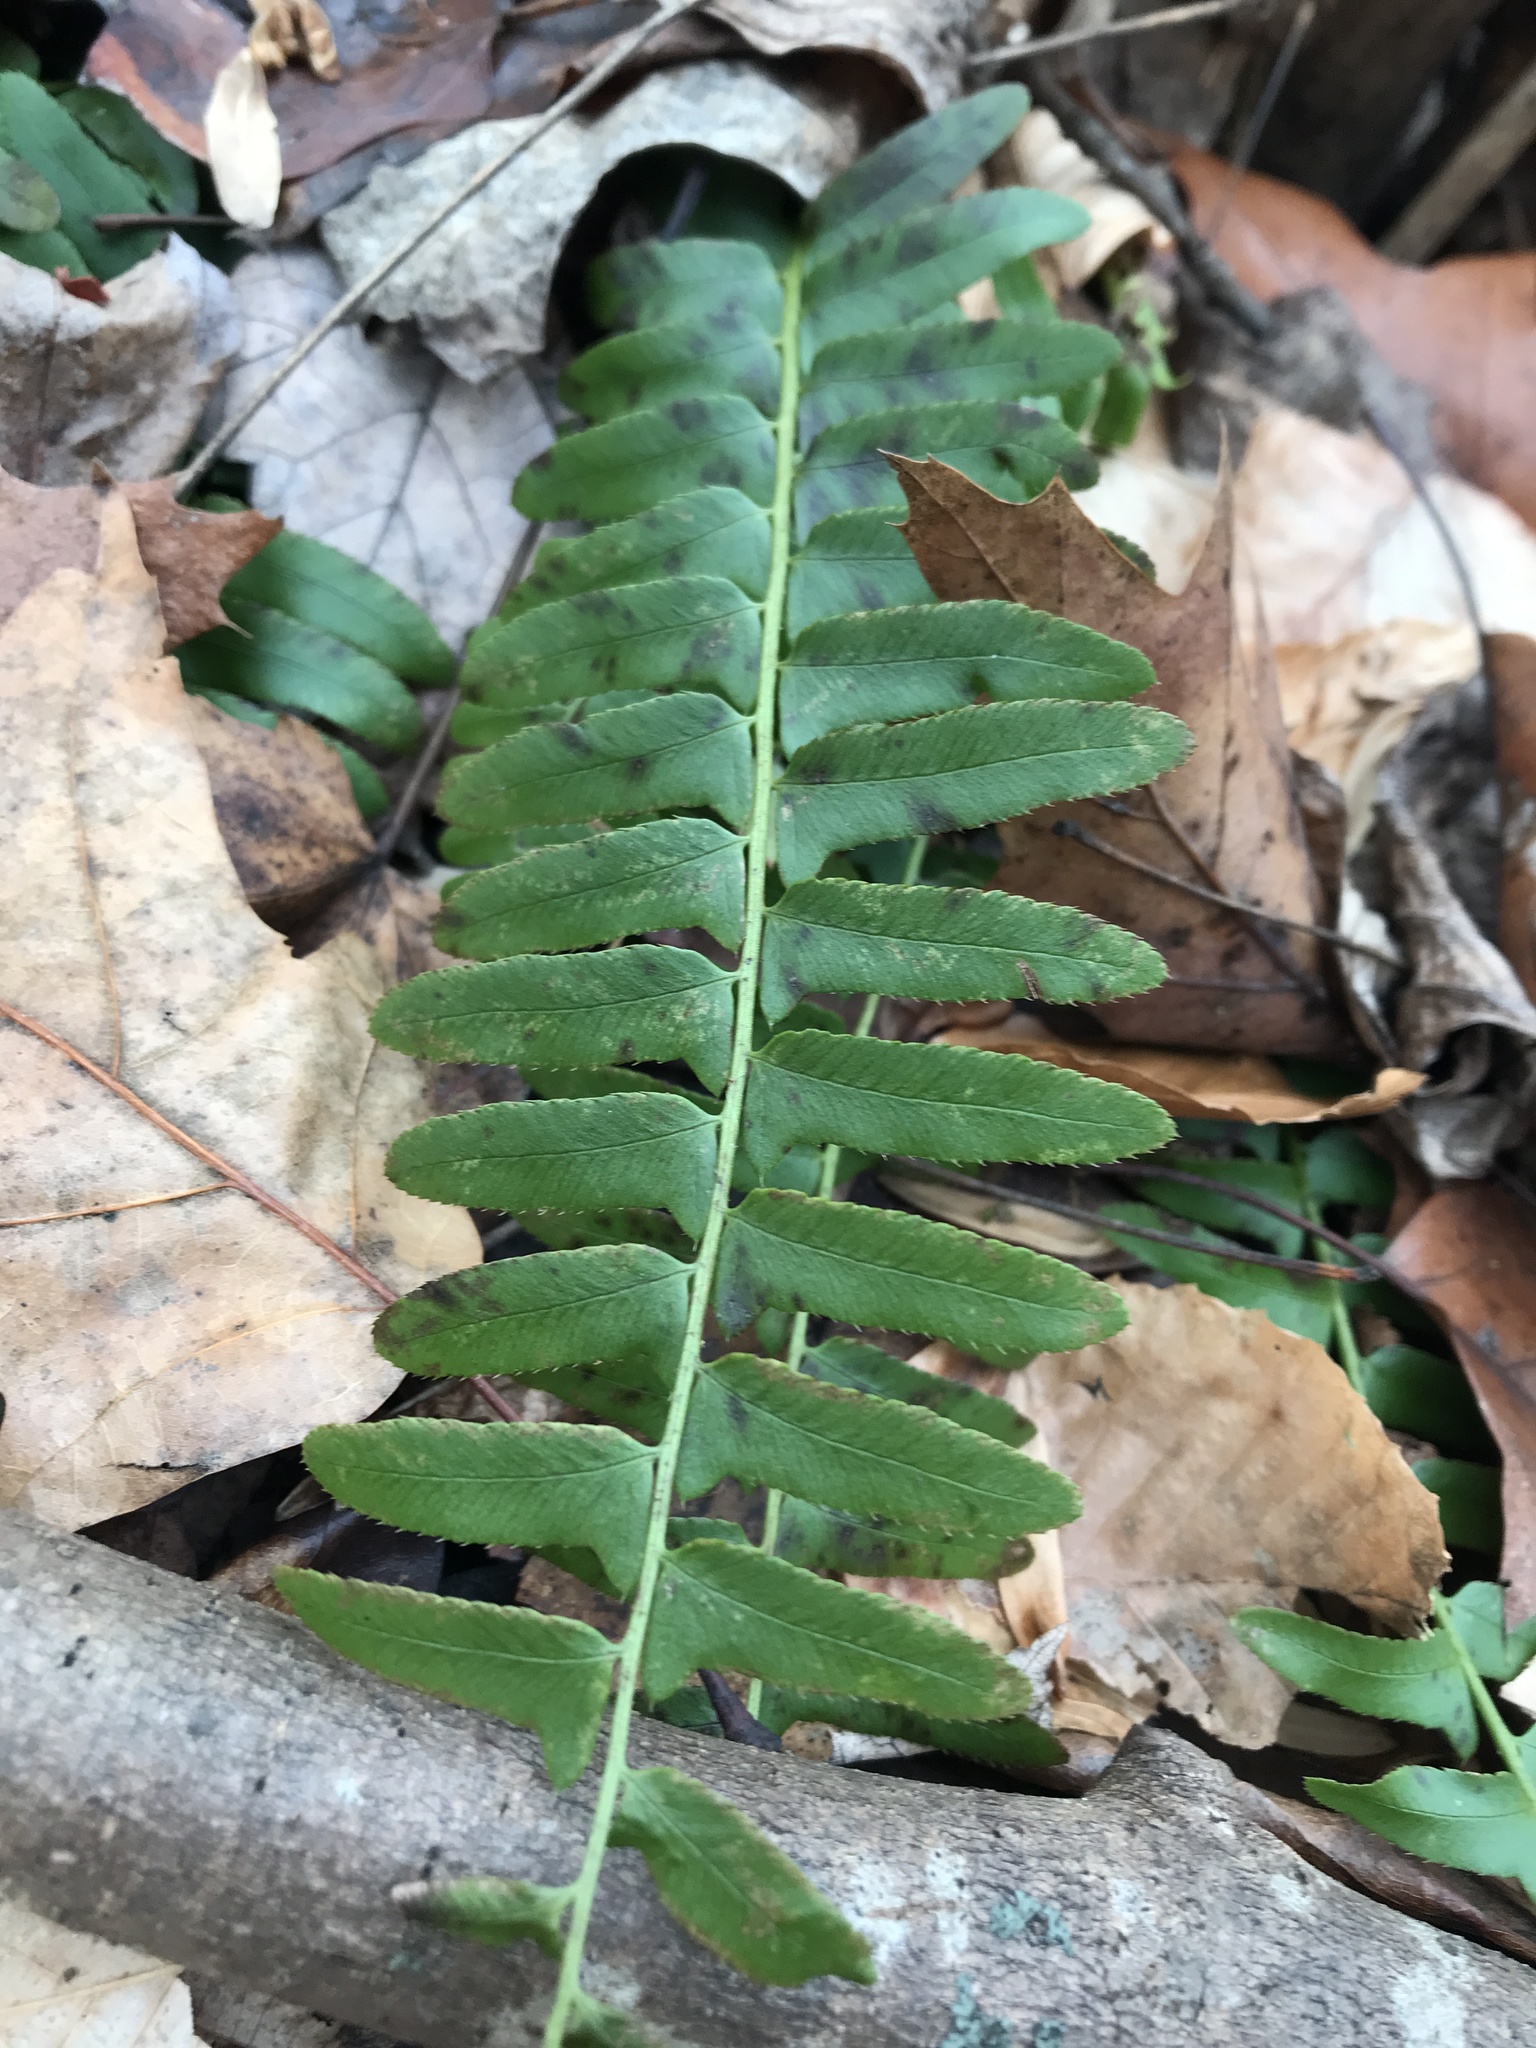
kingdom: Plantae
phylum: Tracheophyta
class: Polypodiopsida
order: Polypodiales
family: Dryopteridaceae
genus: Polystichum
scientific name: Polystichum acrostichoides
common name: Christmas fern
